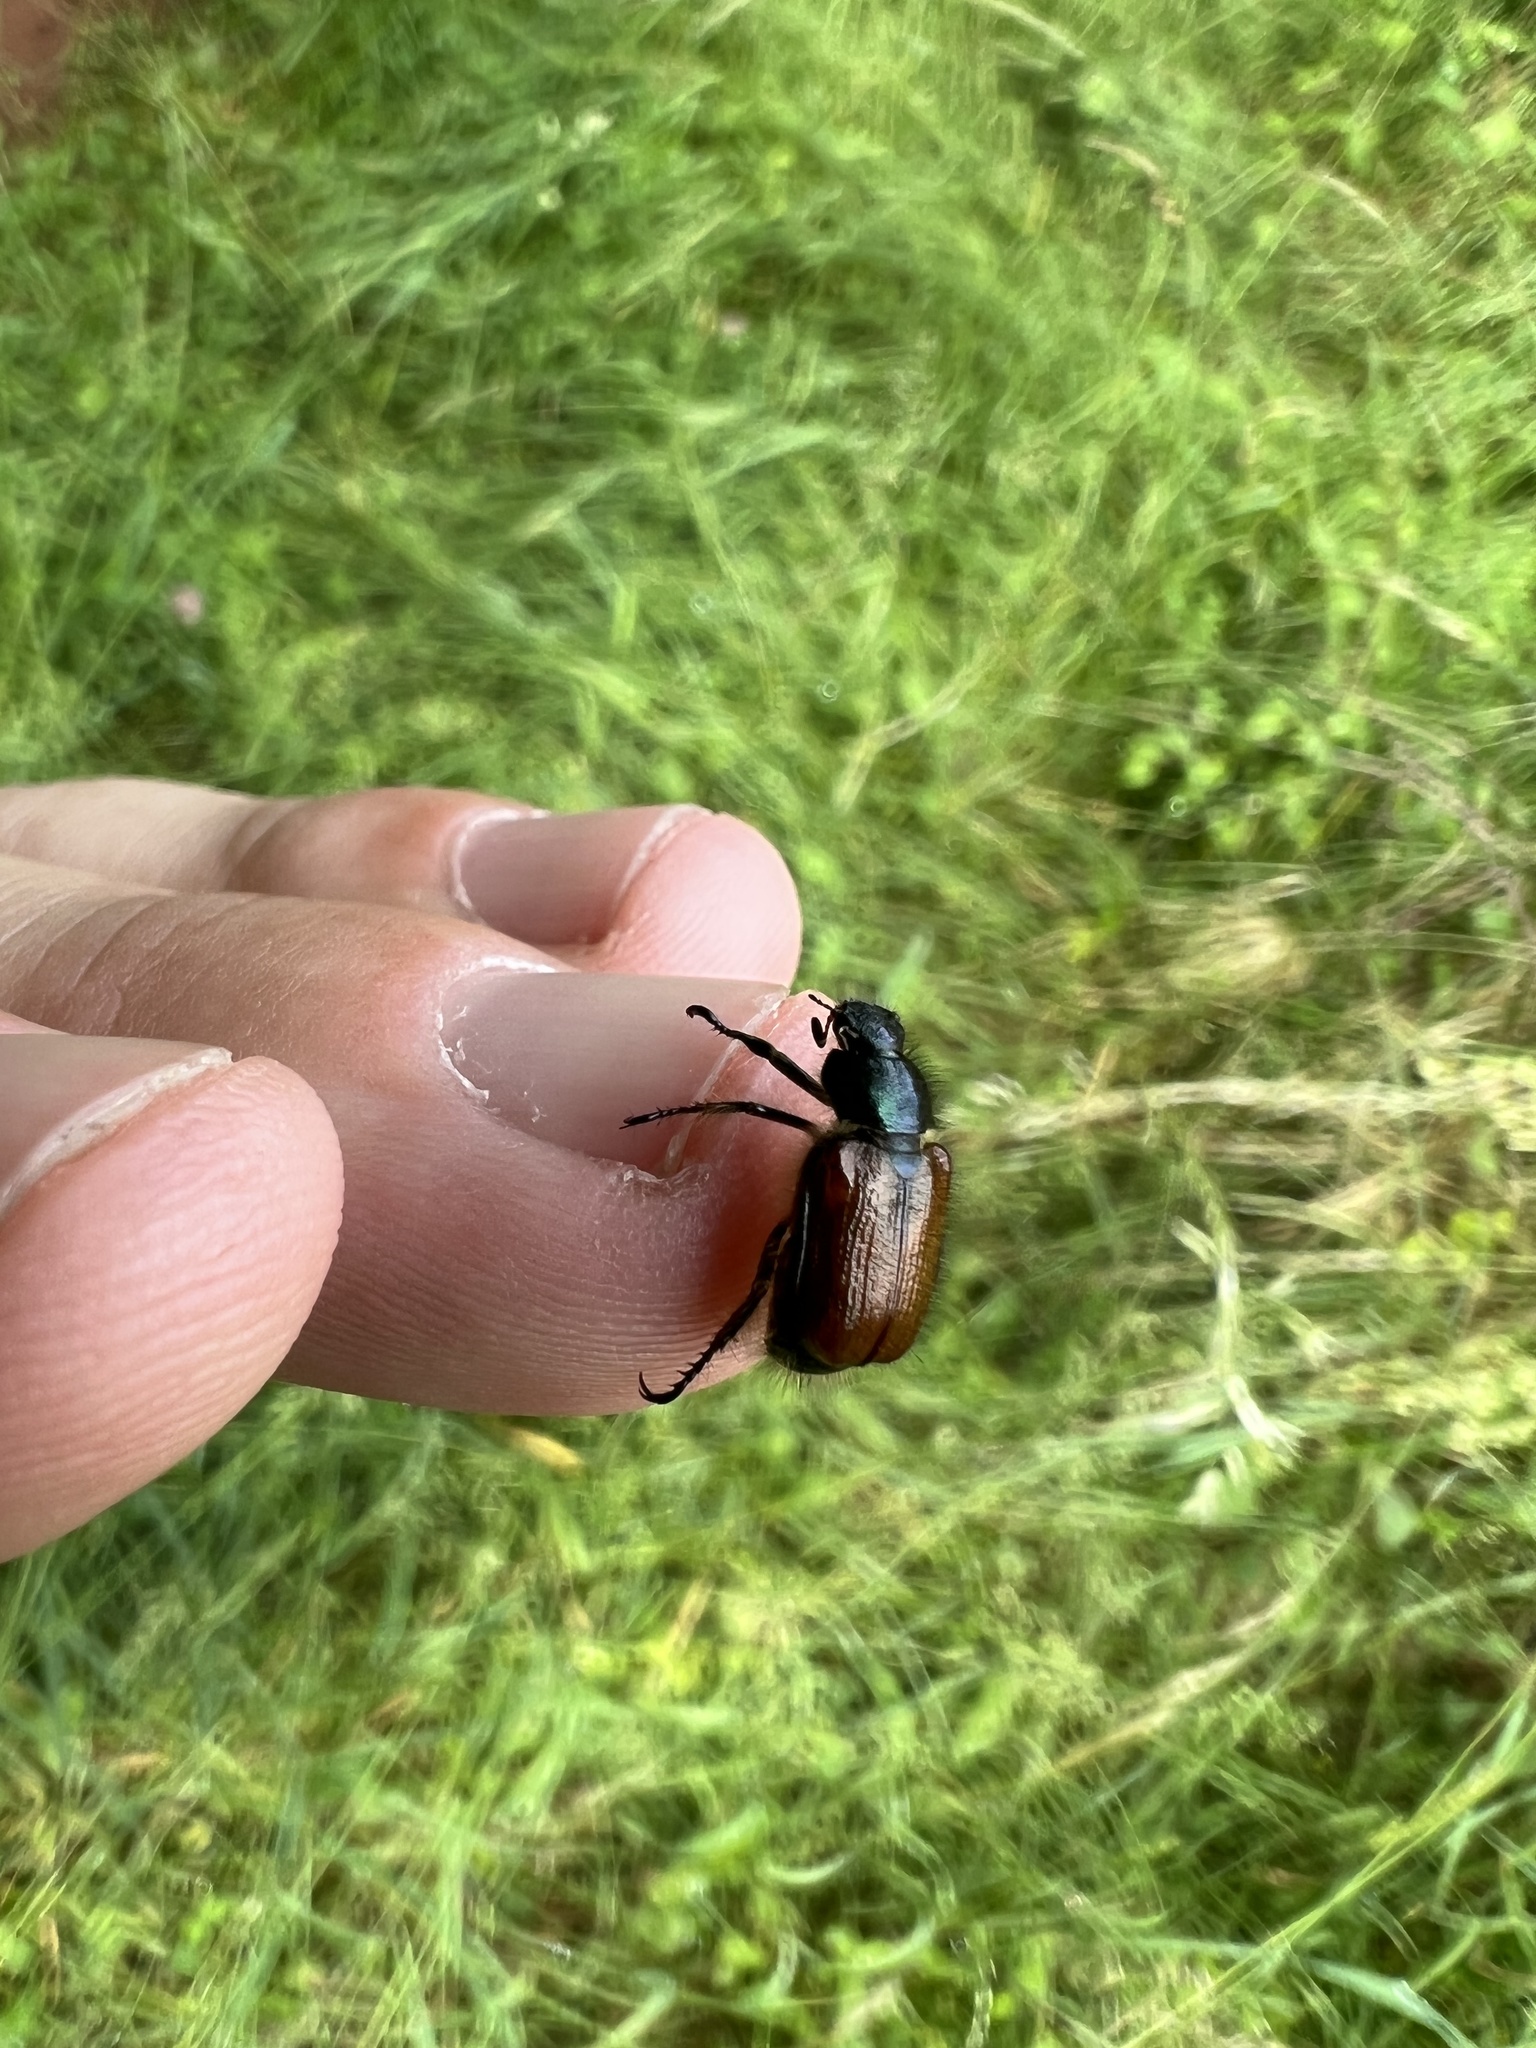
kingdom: Animalia
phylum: Arthropoda
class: Insecta
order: Coleoptera
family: Scarabaeidae
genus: Phyllopertha
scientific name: Phyllopertha horticola
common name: Garden chafer
